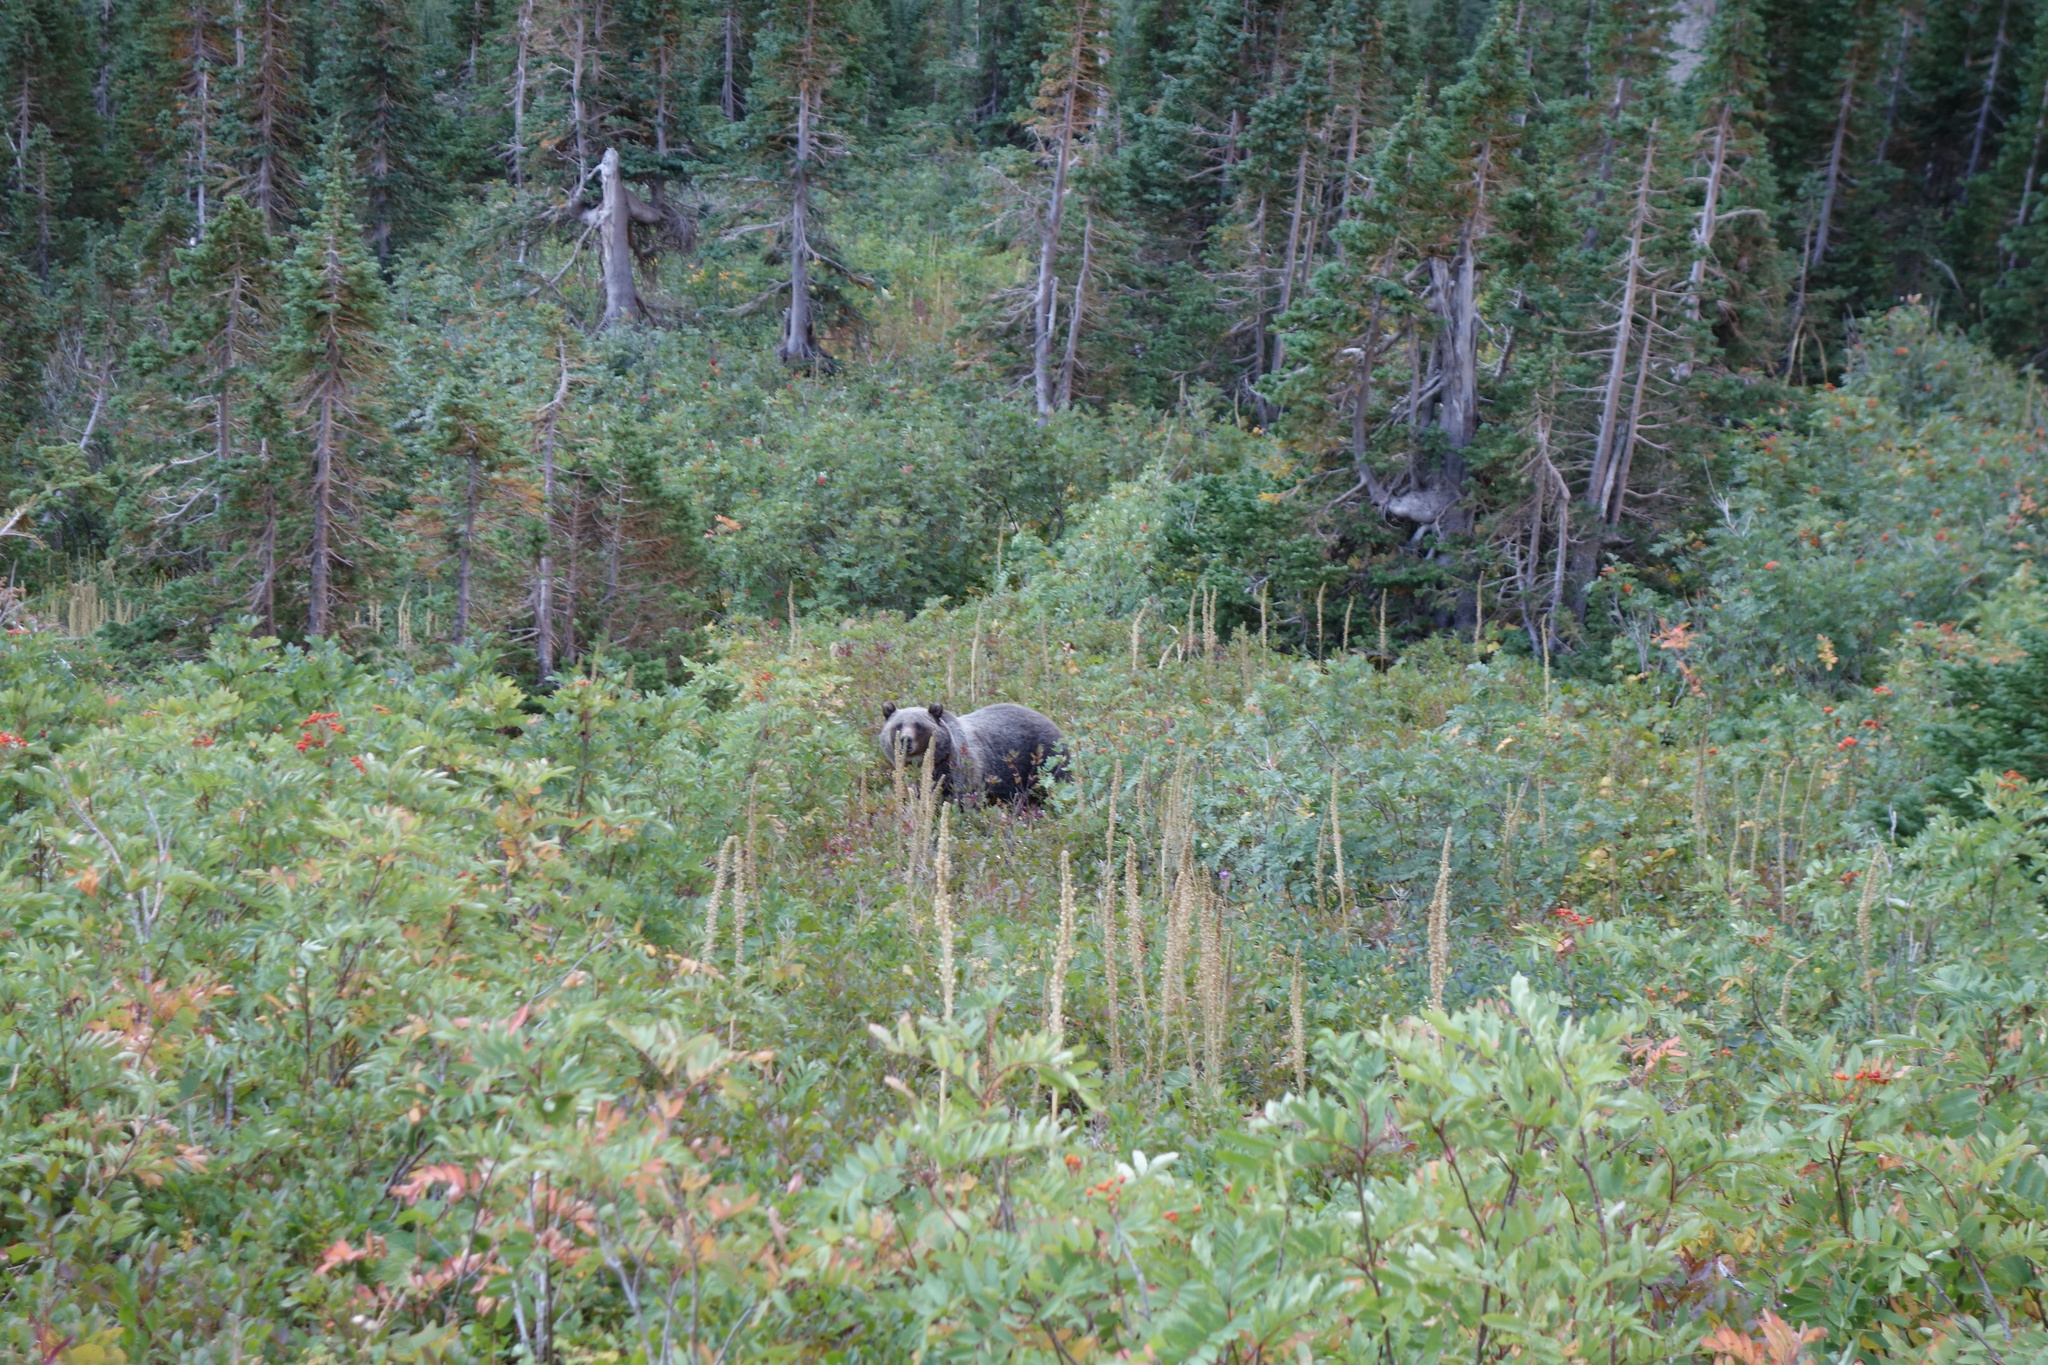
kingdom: Animalia
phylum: Chordata
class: Mammalia
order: Carnivora
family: Ursidae
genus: Ursus
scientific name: Ursus arctos
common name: Brown bear
